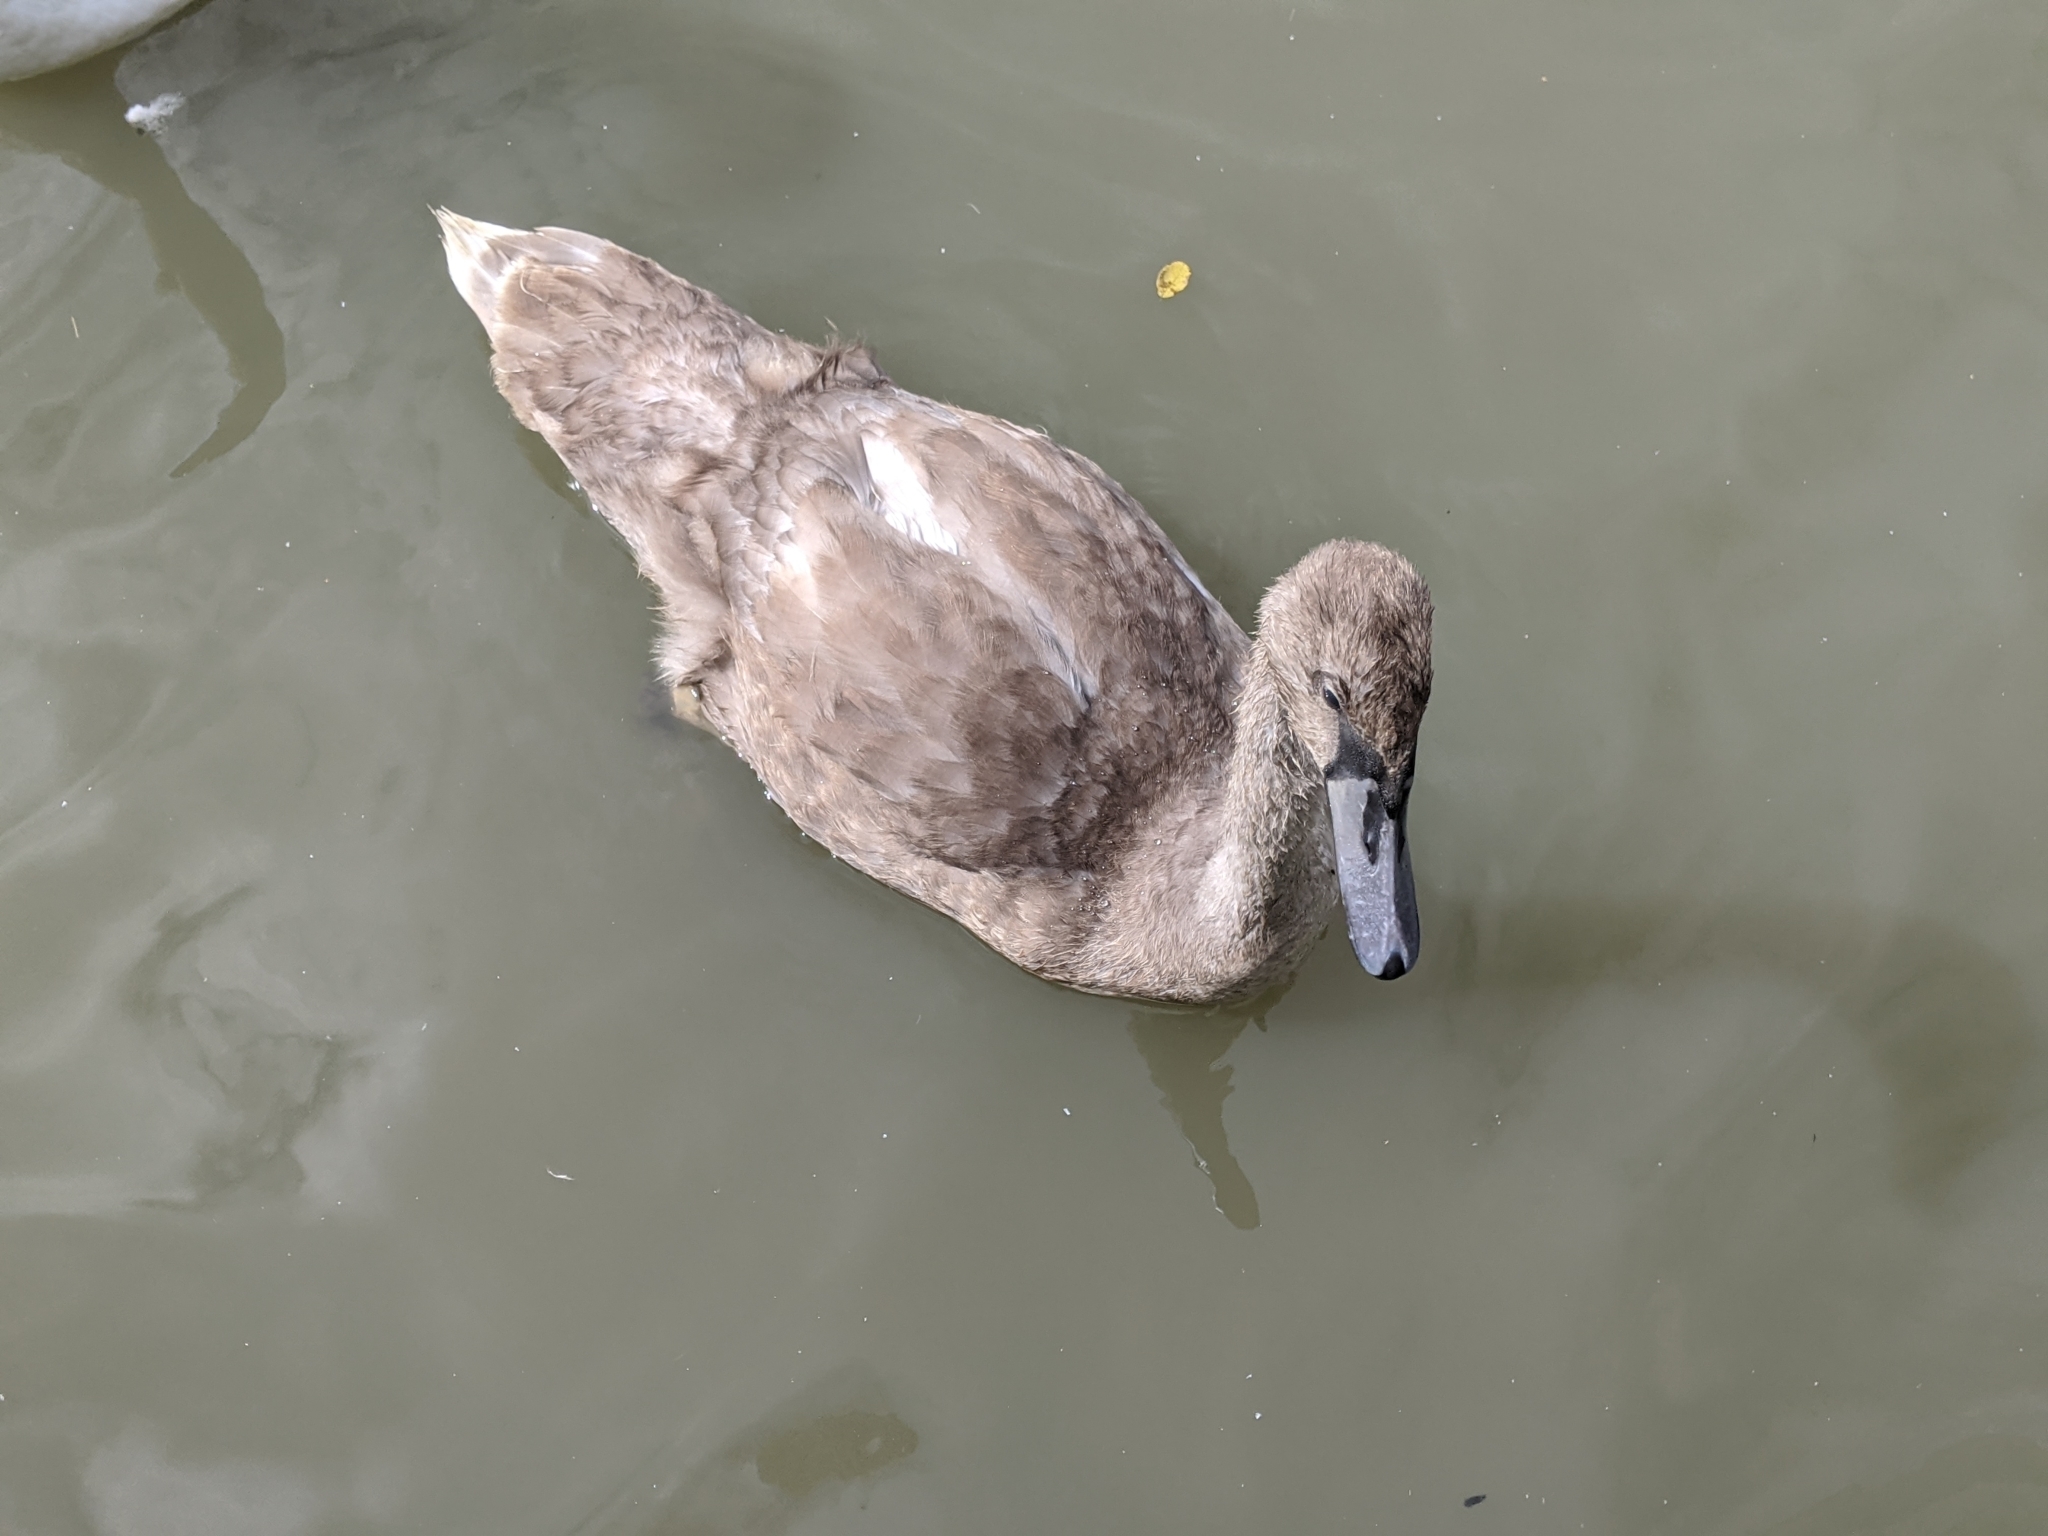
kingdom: Animalia
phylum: Chordata
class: Aves
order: Anseriformes
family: Anatidae
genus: Cygnus
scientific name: Cygnus olor
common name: Mute swan
